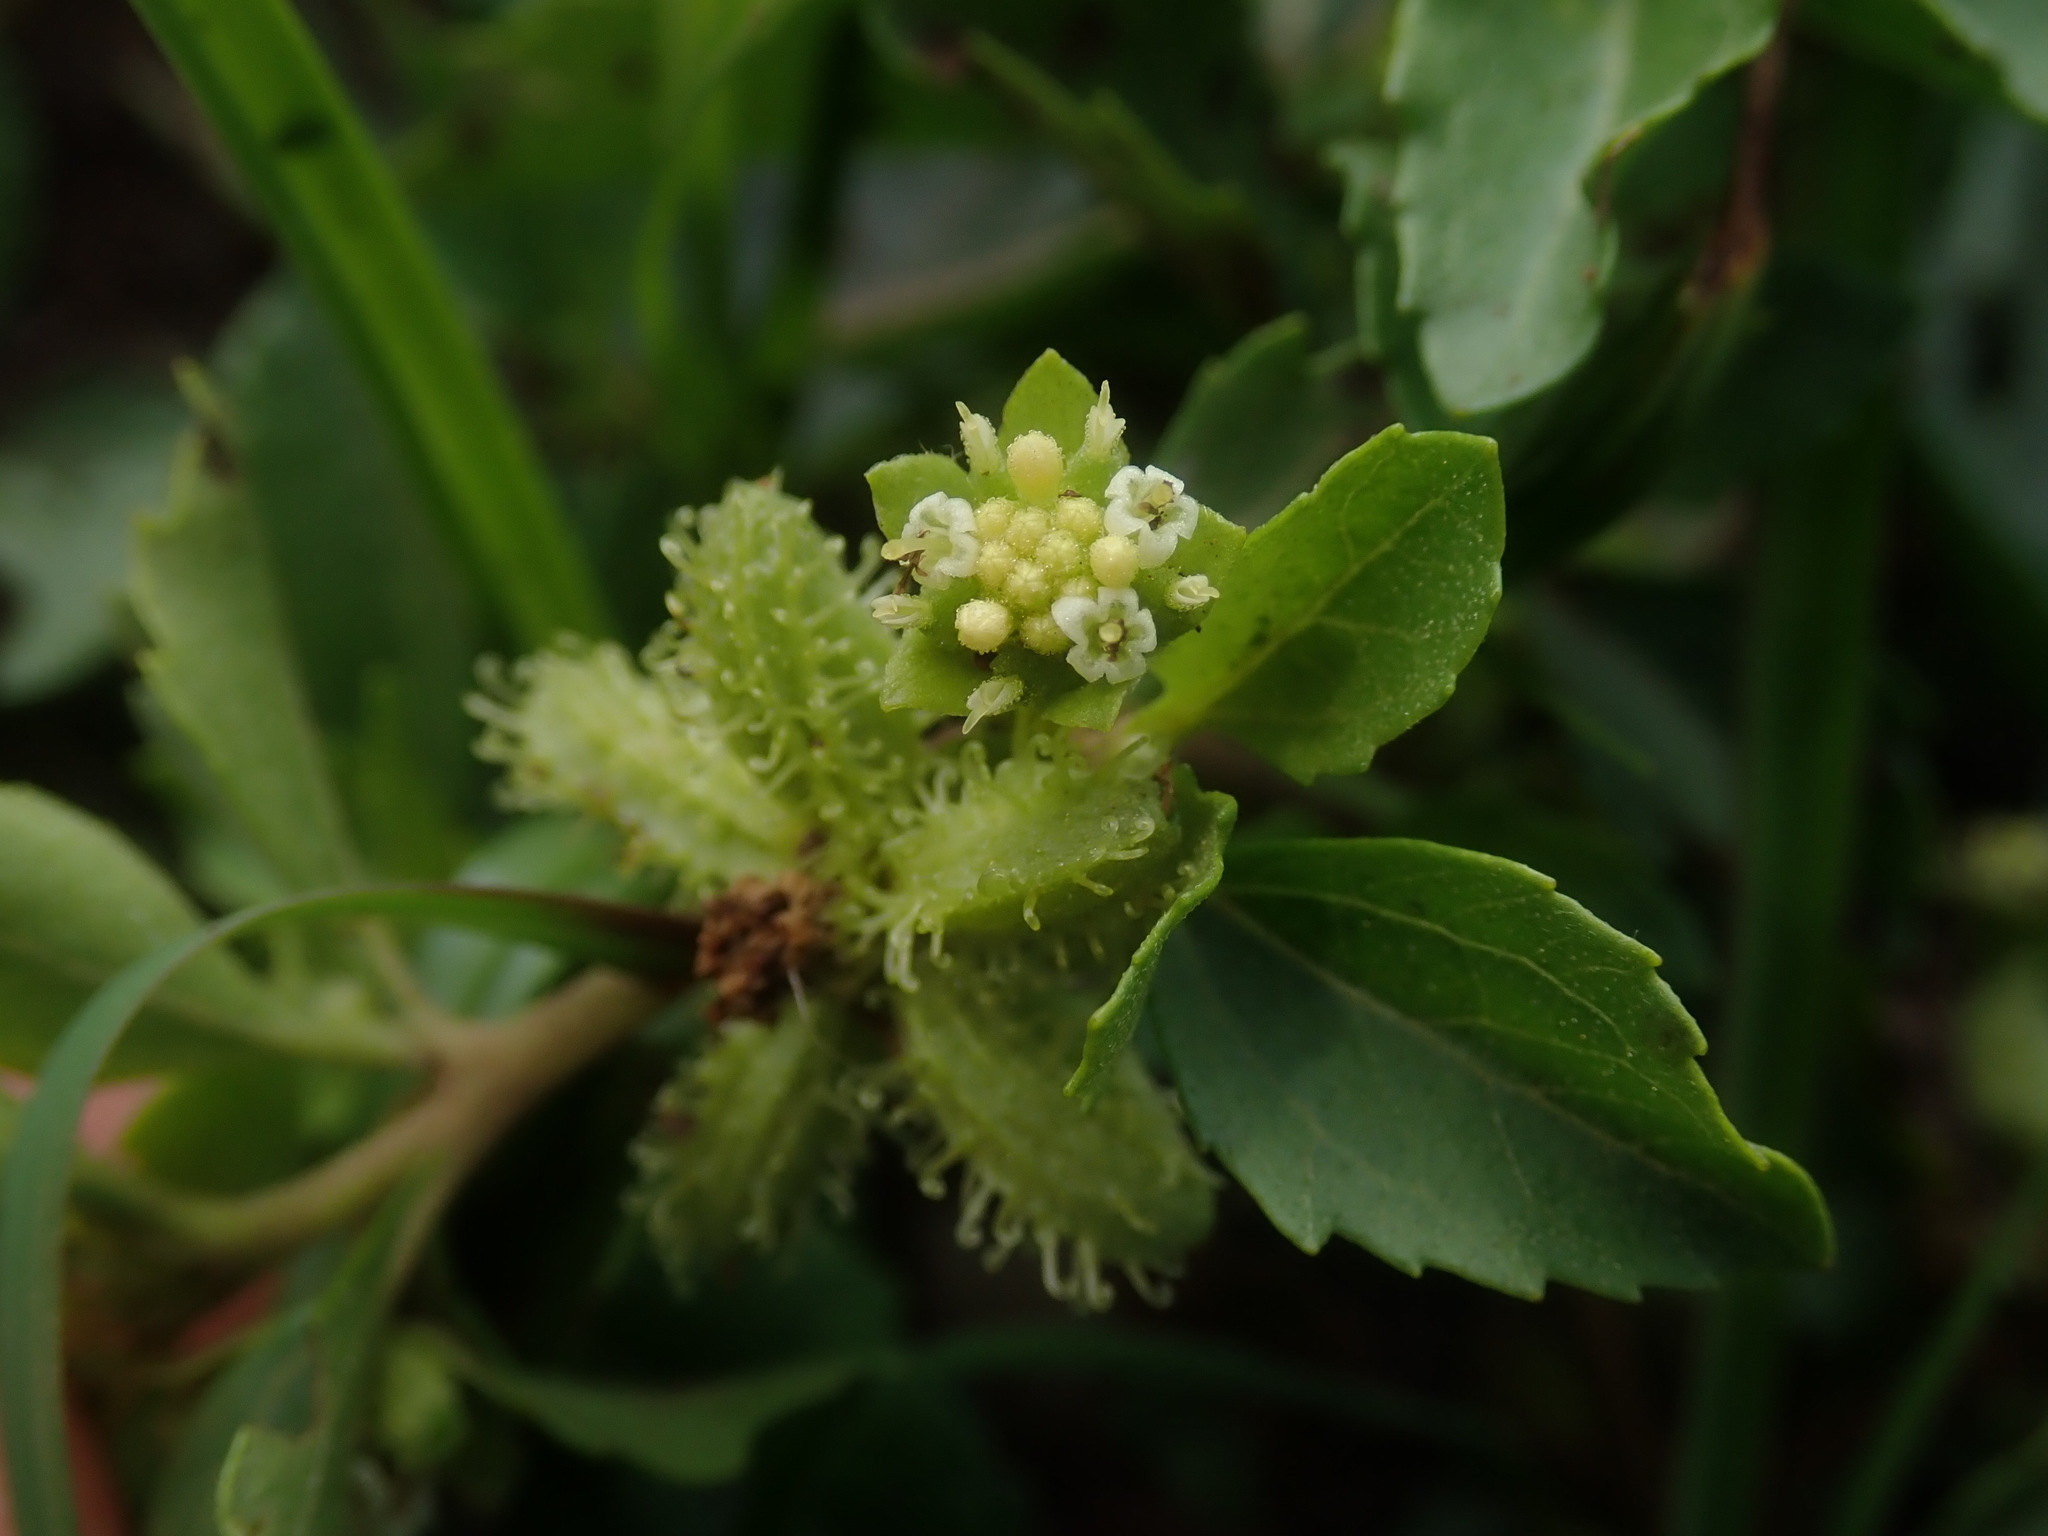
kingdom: Plantae
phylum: Tracheophyta
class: Magnoliopsida
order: Asterales
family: Asteraceae
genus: Acanthospermum
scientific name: Acanthospermum australe
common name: Paraguayan starbur
